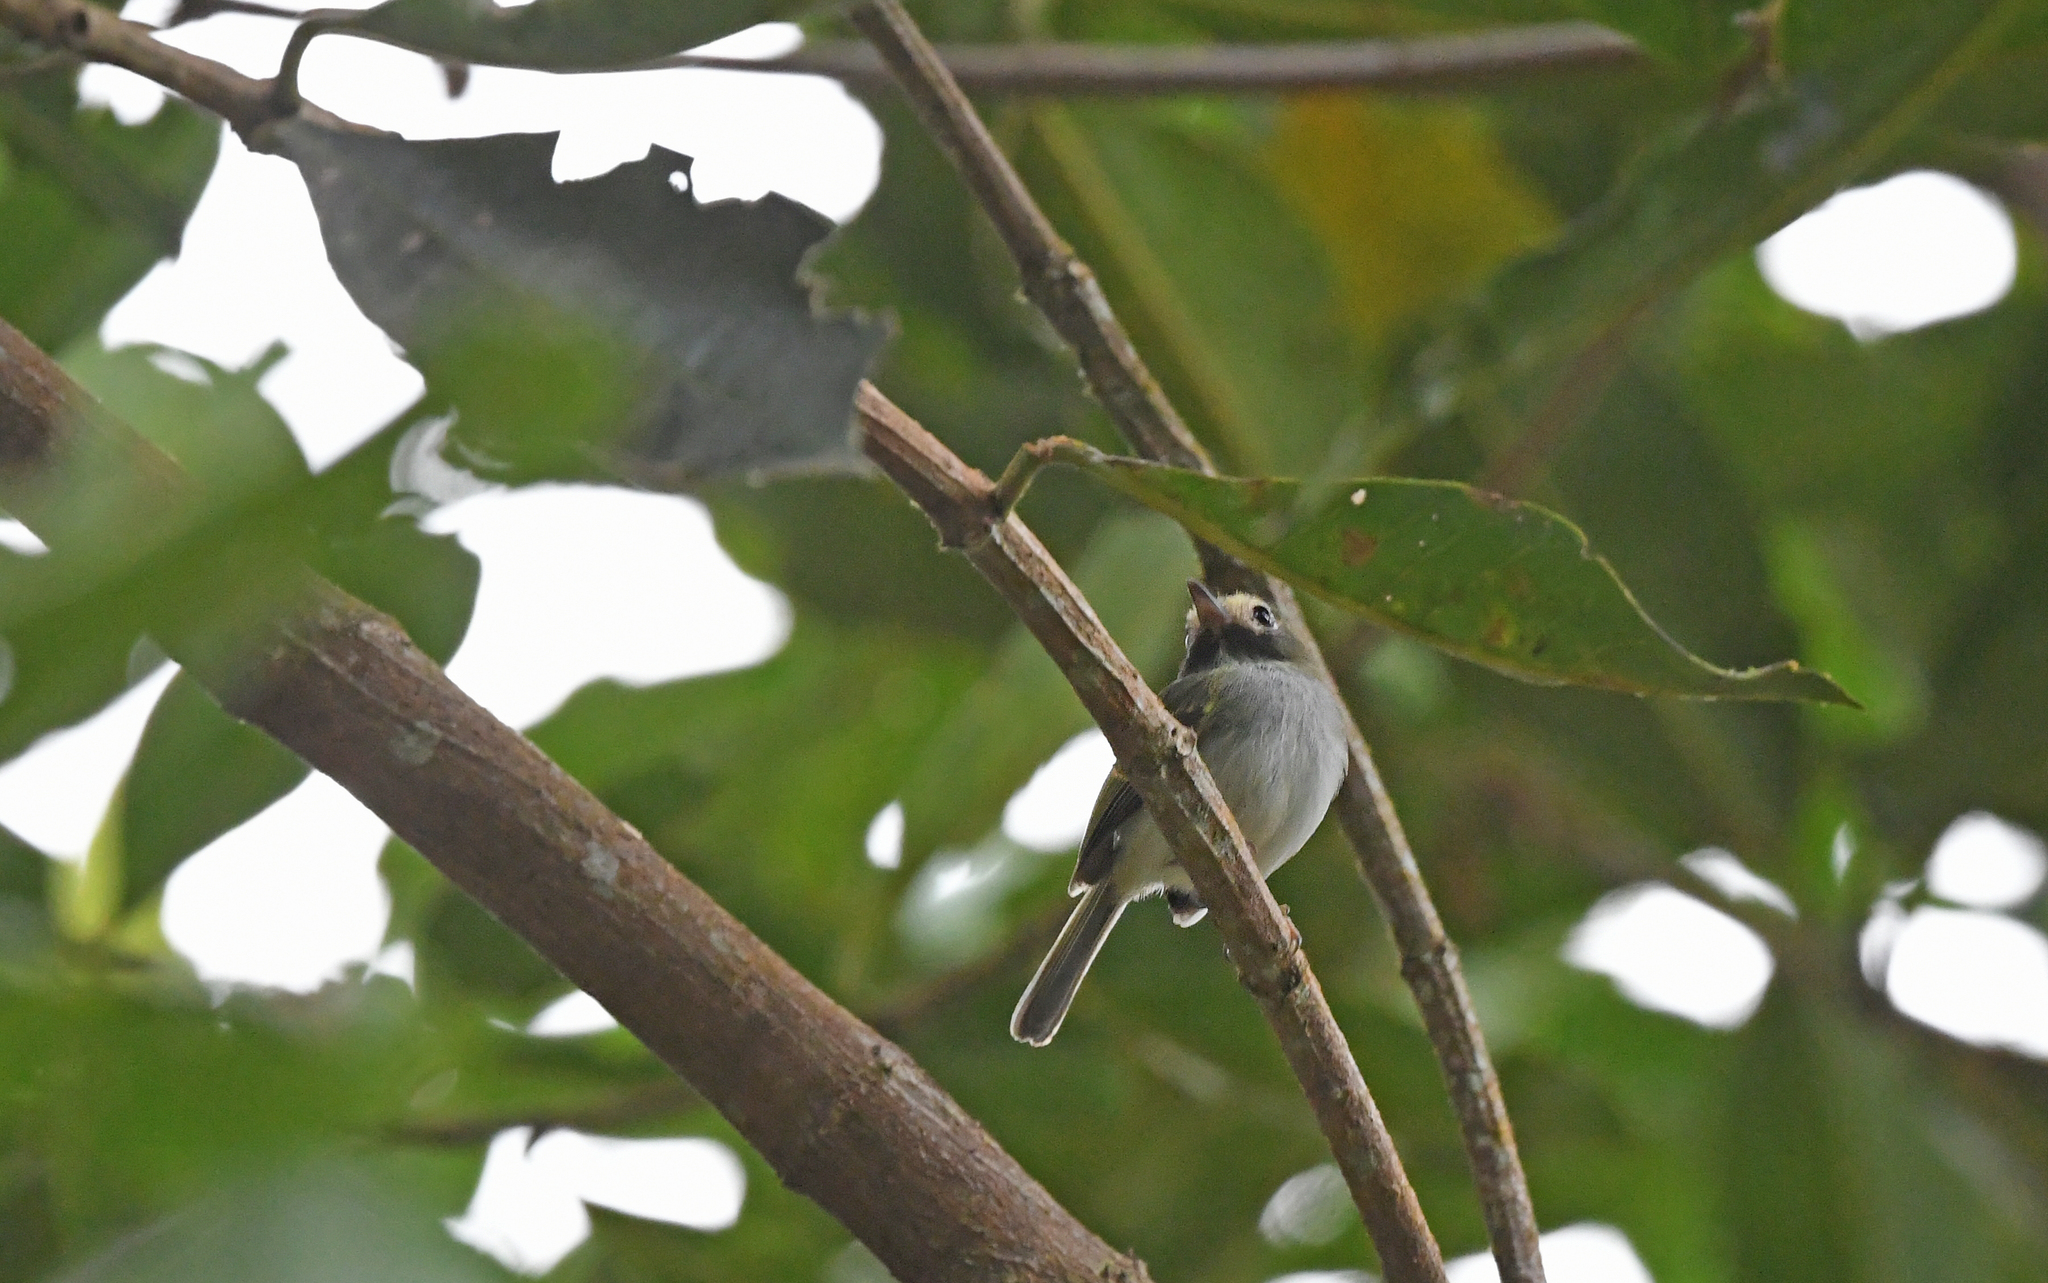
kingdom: Animalia
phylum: Chordata
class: Aves
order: Passeriformes
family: Tyrannidae
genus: Hemitriccus
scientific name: Hemitriccus granadensis
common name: Black-throated tody-tyrant
